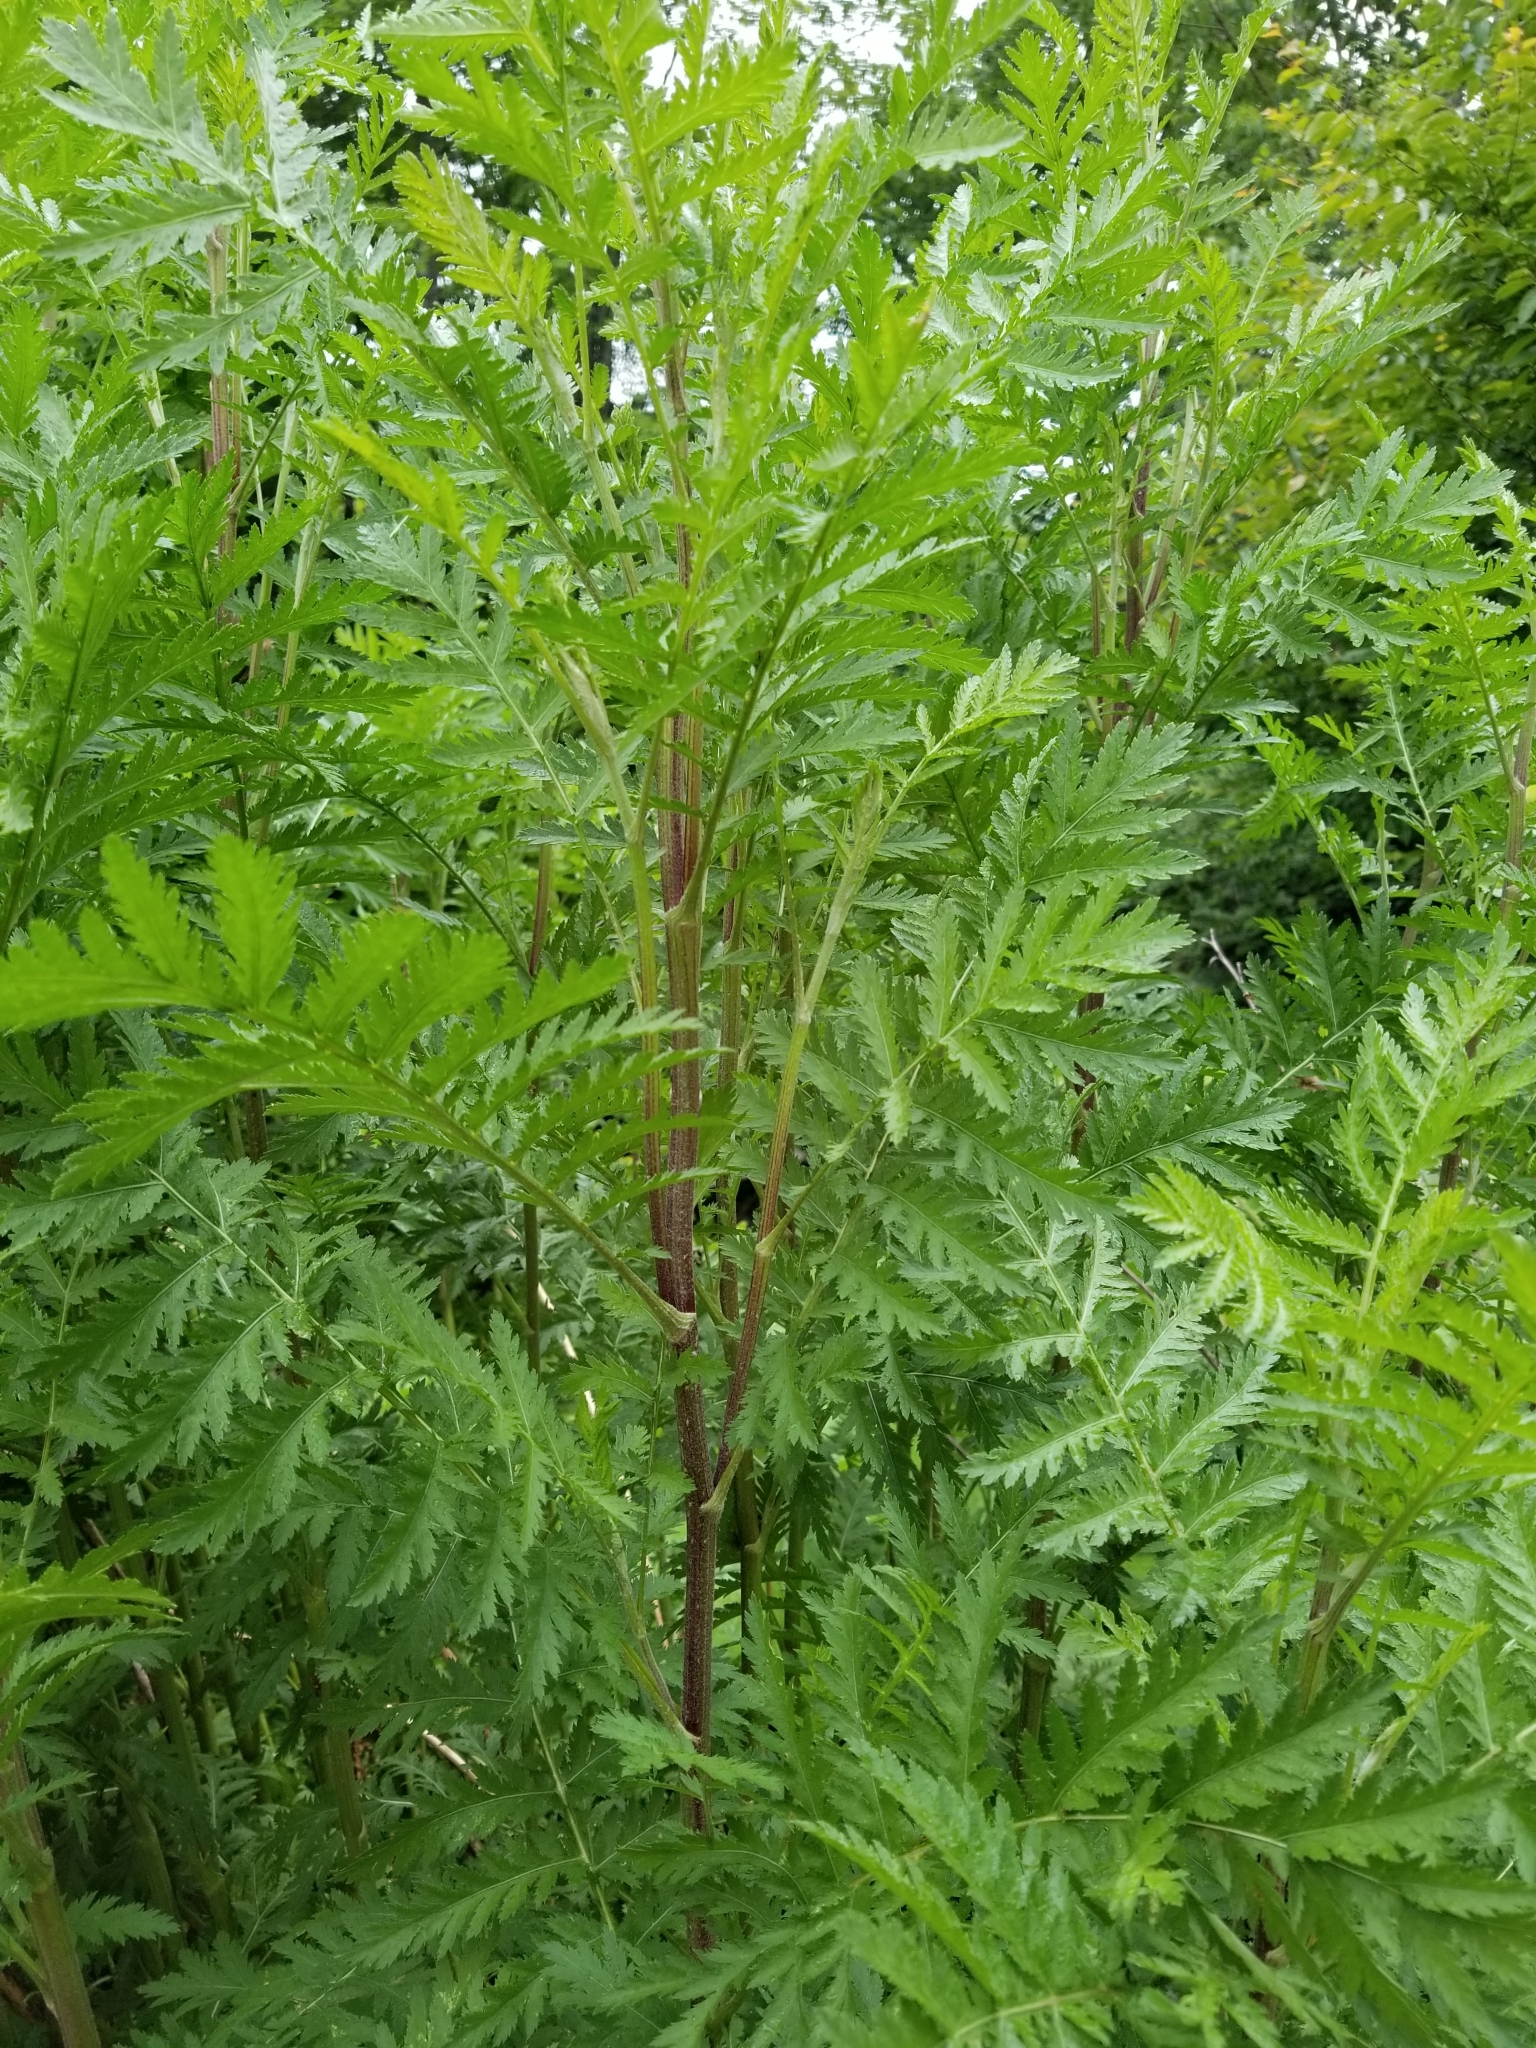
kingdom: Plantae
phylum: Tracheophyta
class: Magnoliopsida
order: Asterales
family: Asteraceae
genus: Tanacetum
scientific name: Tanacetum vulgare
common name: Common tansy
